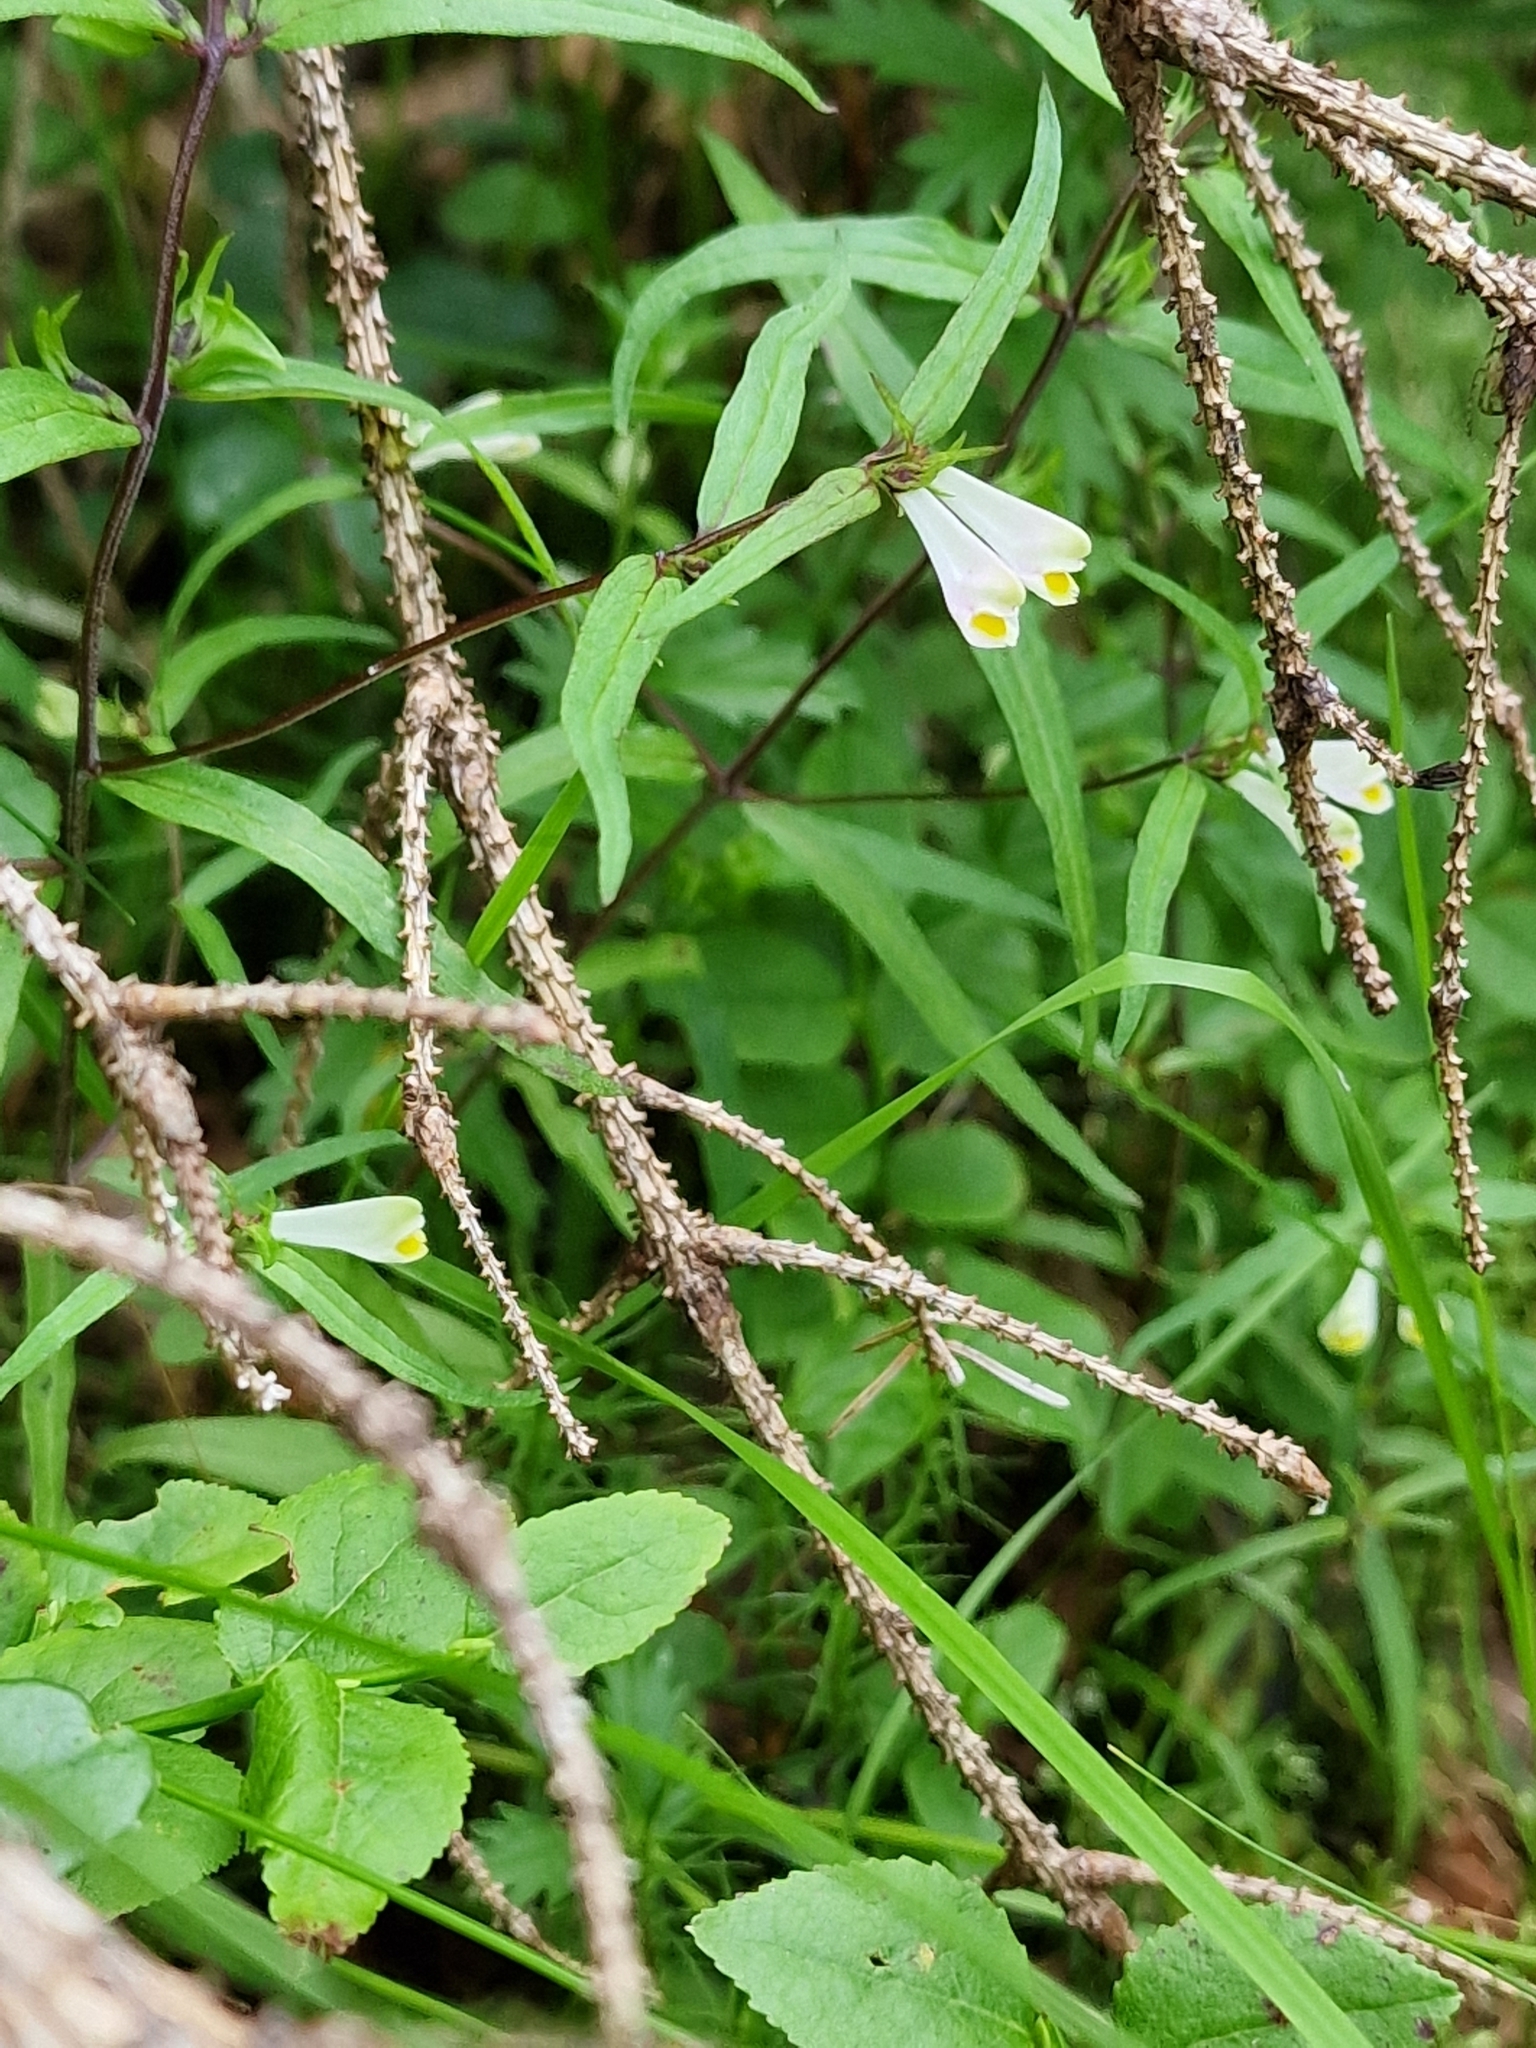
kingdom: Plantae
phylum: Tracheophyta
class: Magnoliopsida
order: Lamiales
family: Orobanchaceae
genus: Melampyrum
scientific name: Melampyrum pratense
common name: Common cow-wheat
